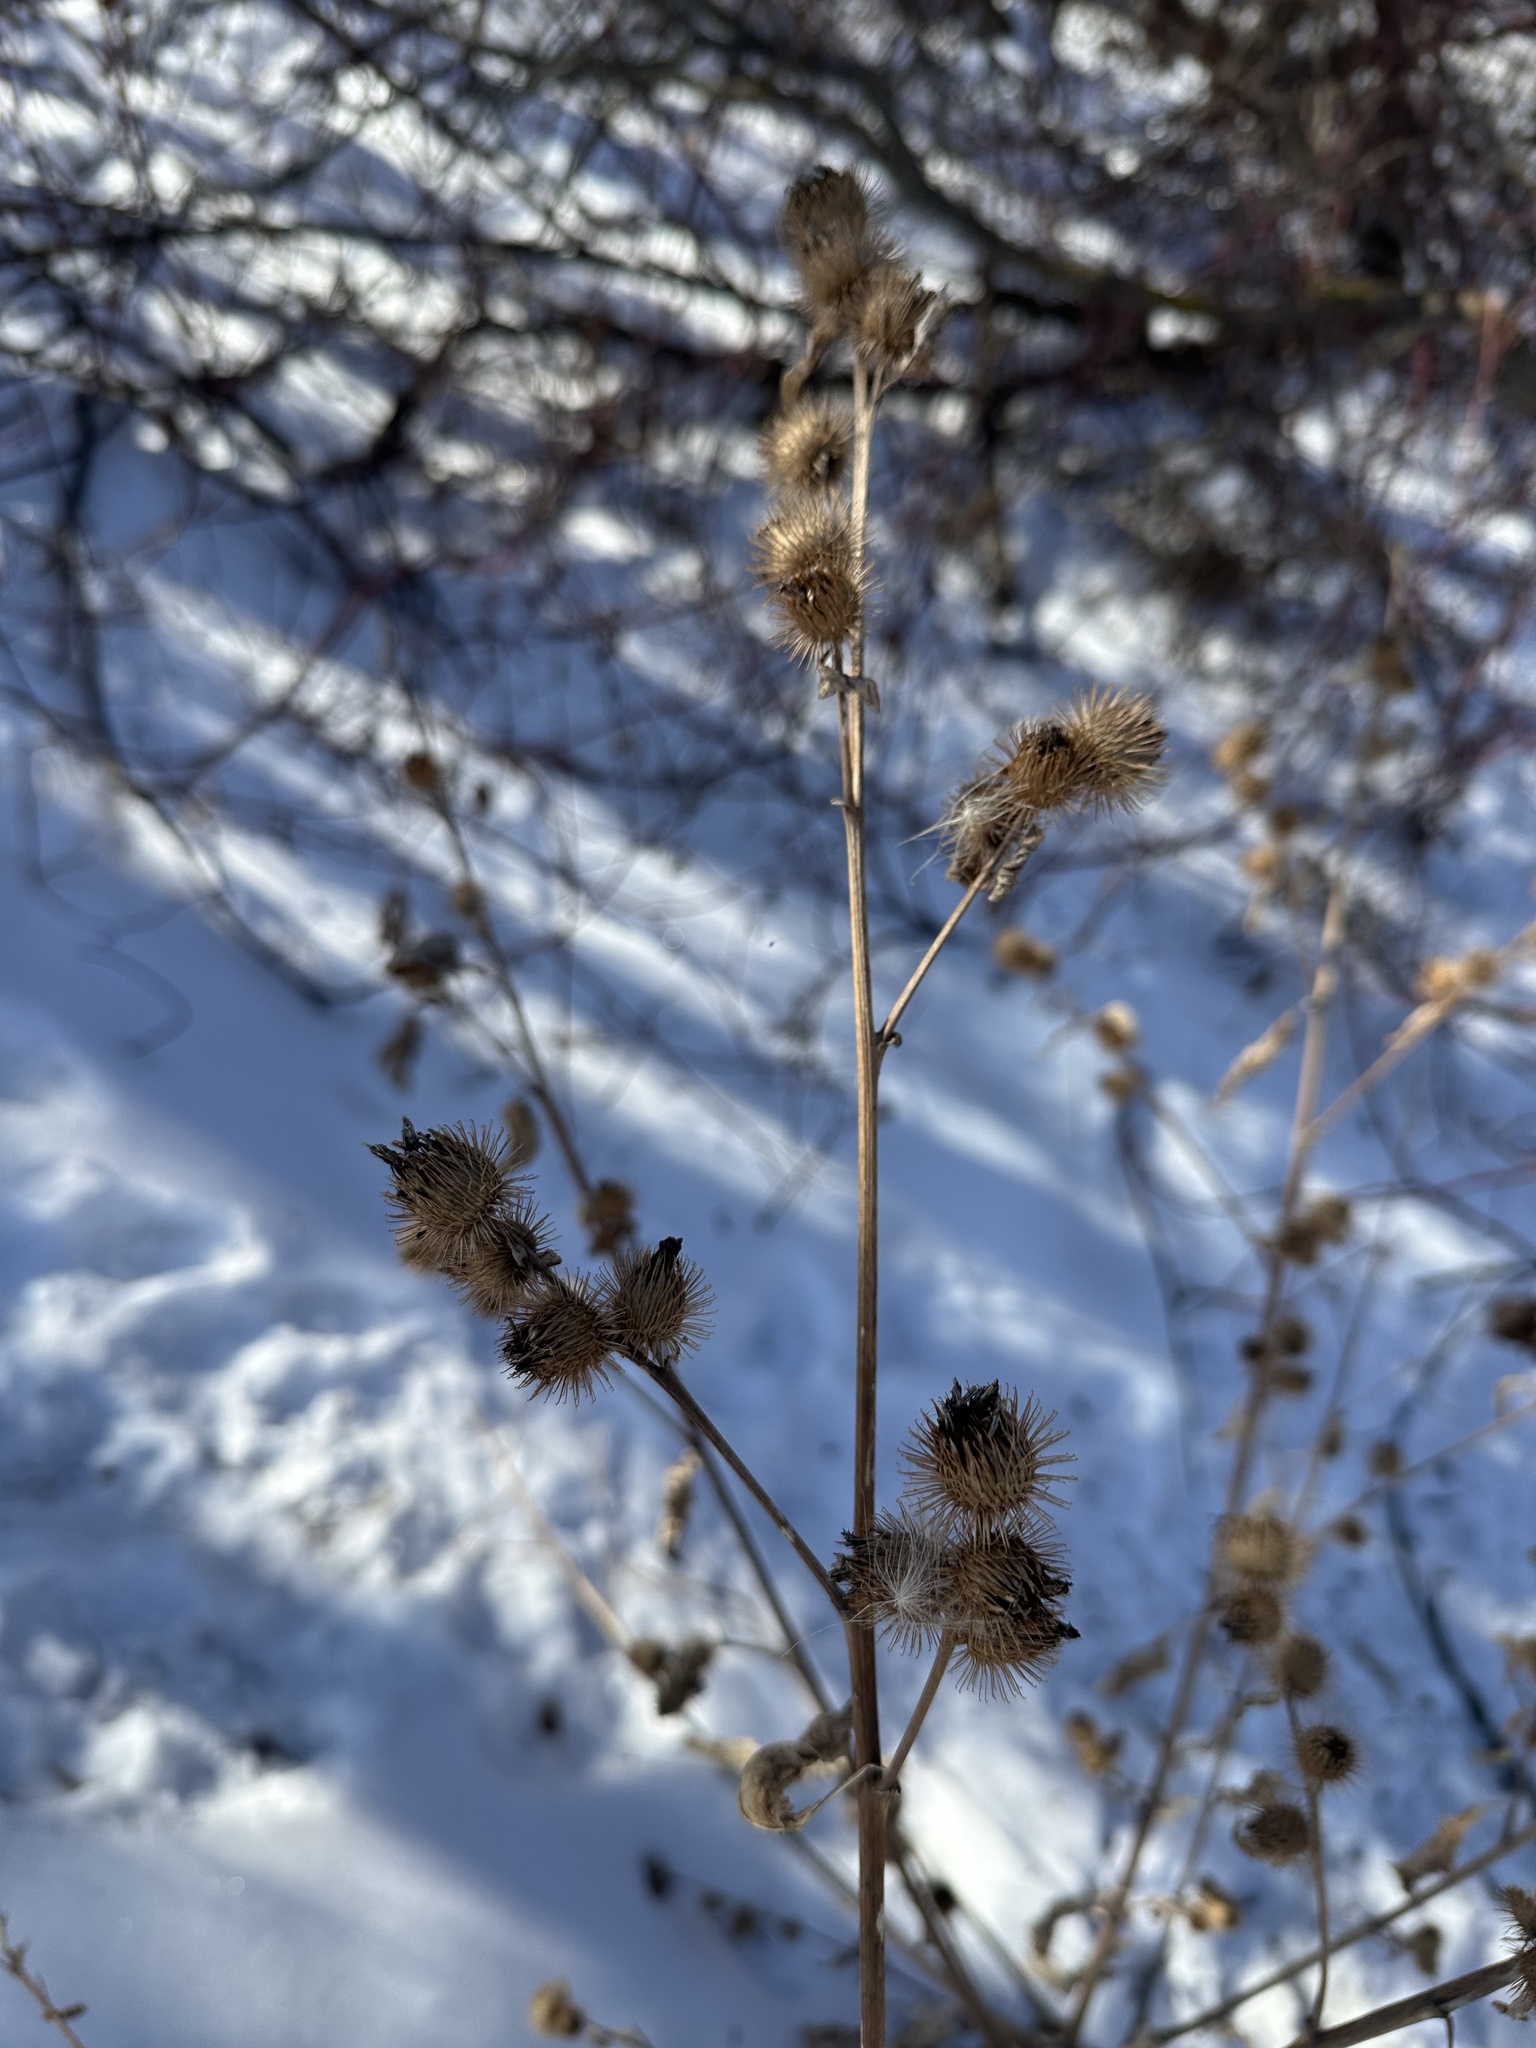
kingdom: Plantae
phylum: Tracheophyta
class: Magnoliopsida
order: Asterales
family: Asteraceae
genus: Arctium
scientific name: Arctium minus
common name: Lesser burdock
